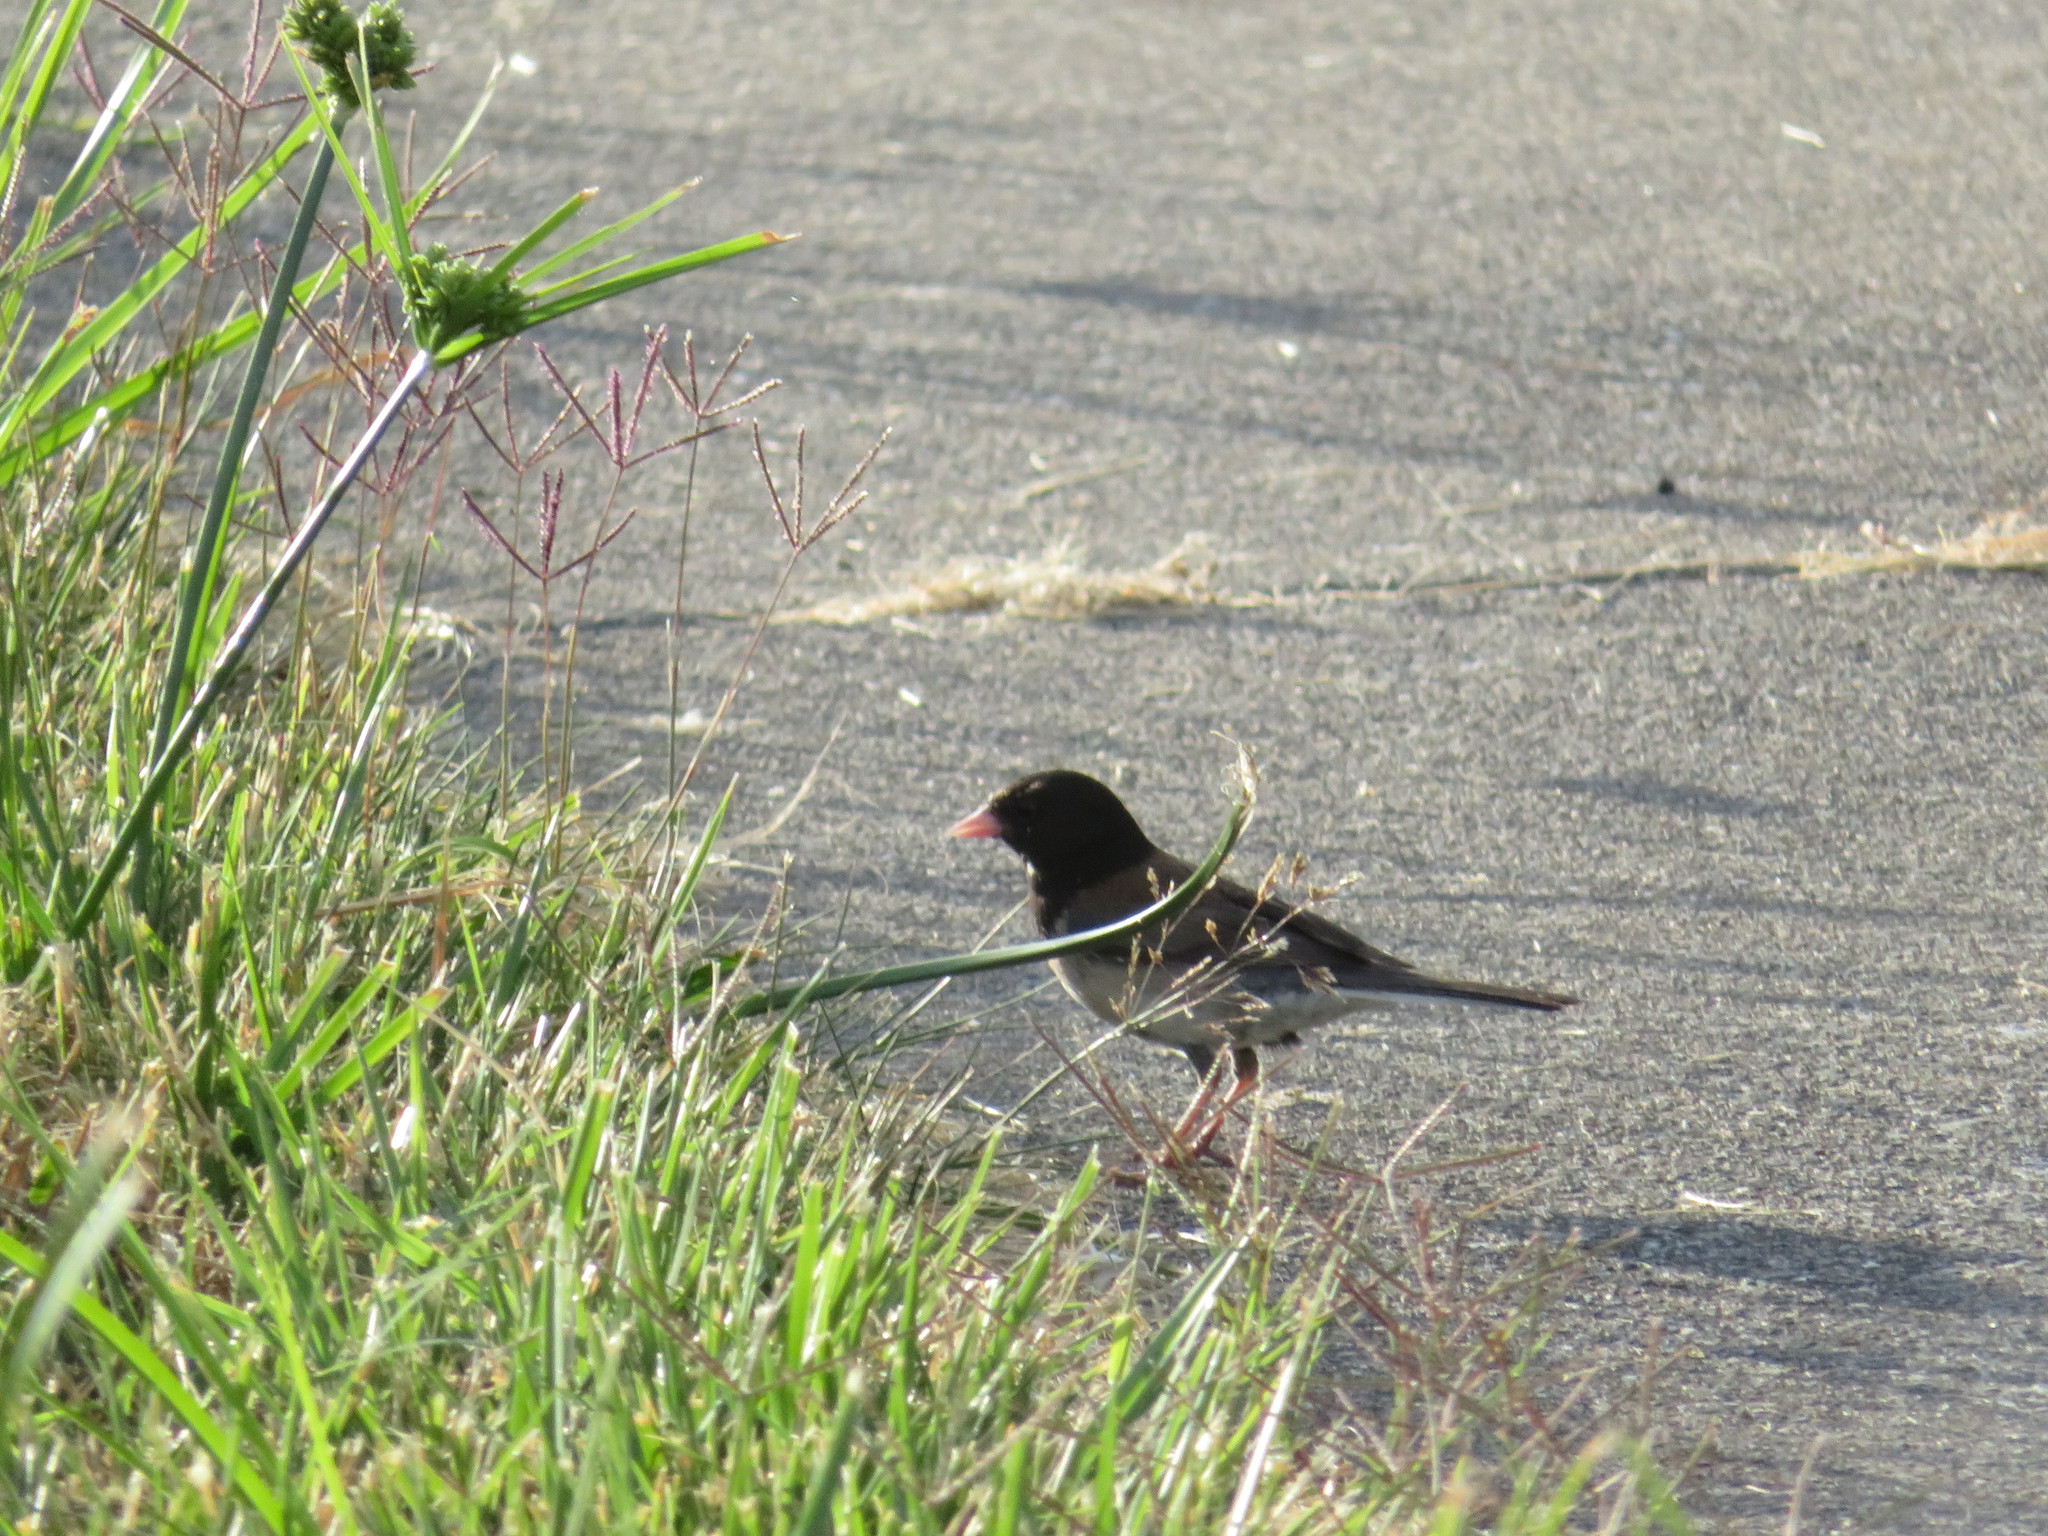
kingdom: Animalia
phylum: Chordata
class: Aves
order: Passeriformes
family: Passerellidae
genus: Junco
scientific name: Junco hyemalis
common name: Dark-eyed junco
